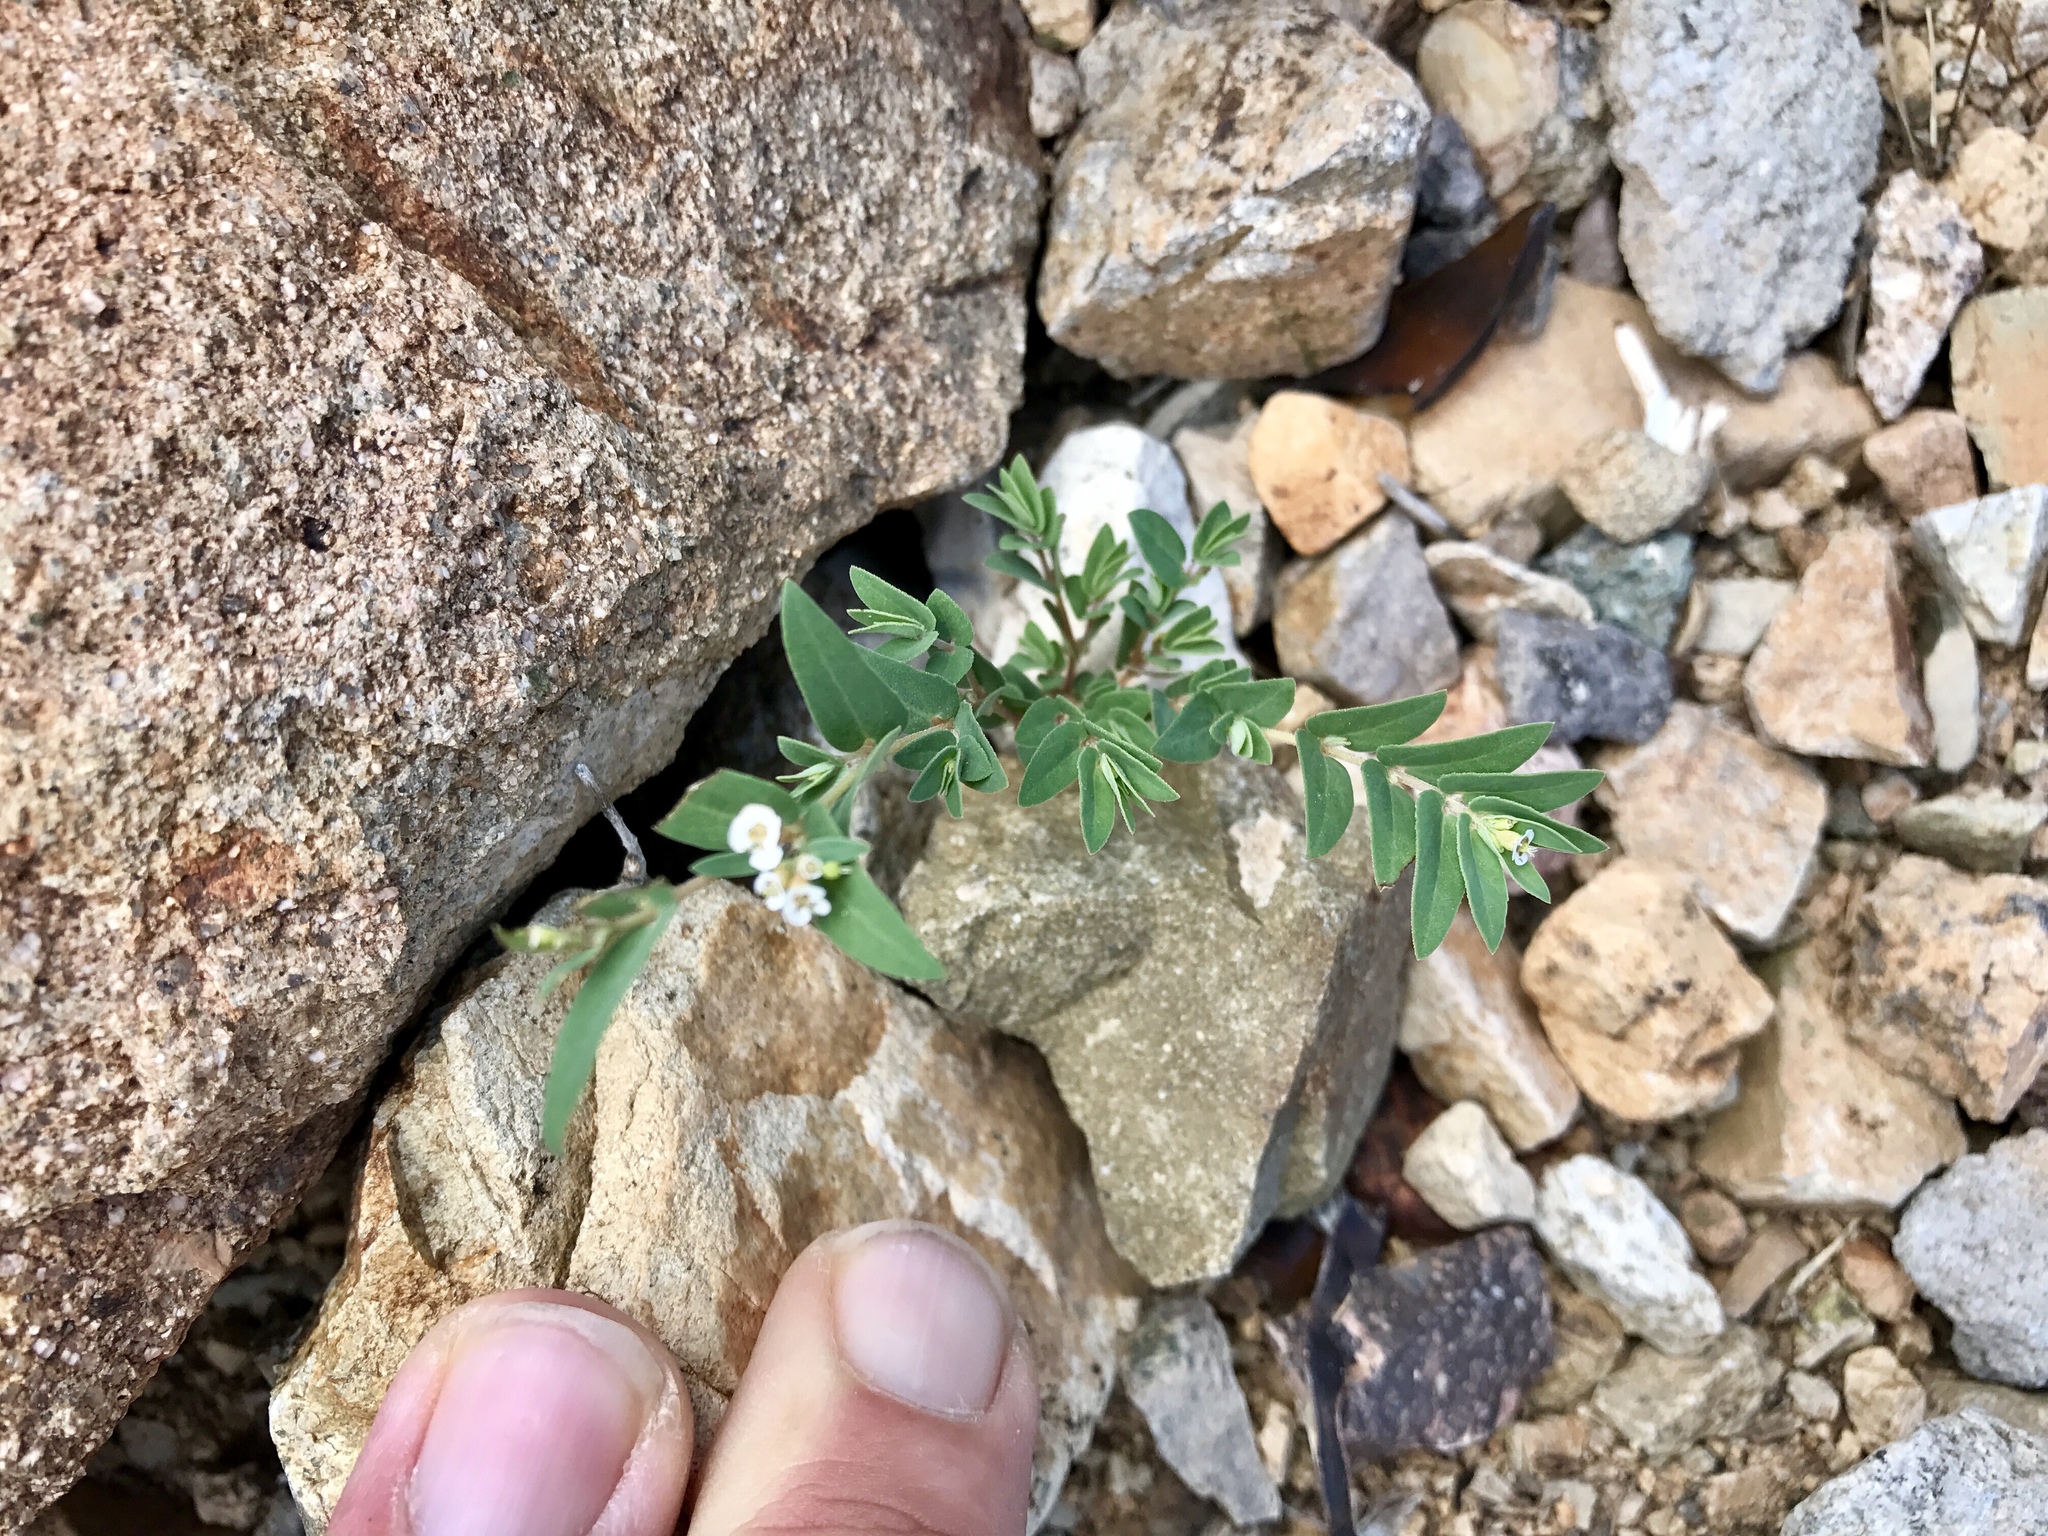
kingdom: Plantae
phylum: Tracheophyta
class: Magnoliopsida
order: Malpighiales
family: Euphorbiaceae
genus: Euphorbia
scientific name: Euphorbia capitellata
